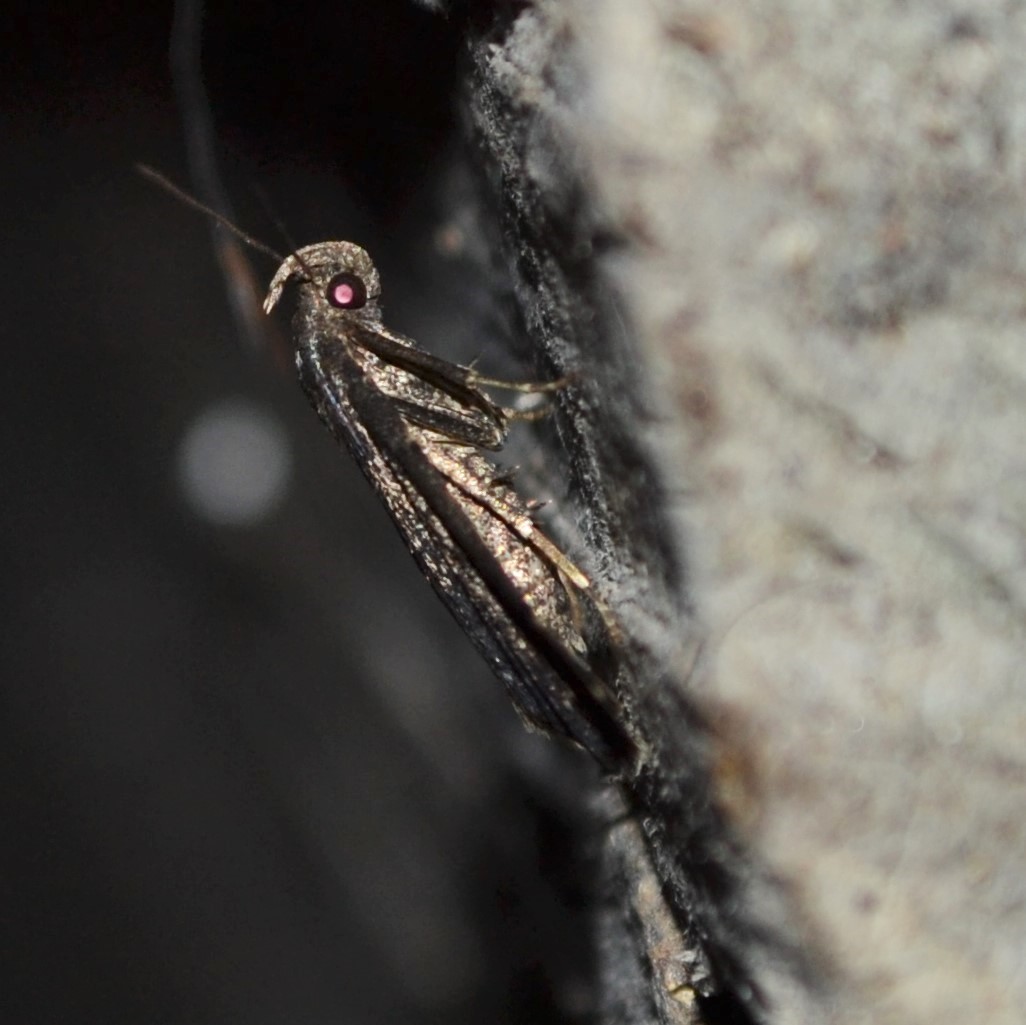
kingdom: Animalia
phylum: Arthropoda
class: Insecta
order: Lepidoptera
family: Erebidae
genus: Tetanolita
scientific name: Tetanolita mynesalis
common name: Smoky tetanolita moth
